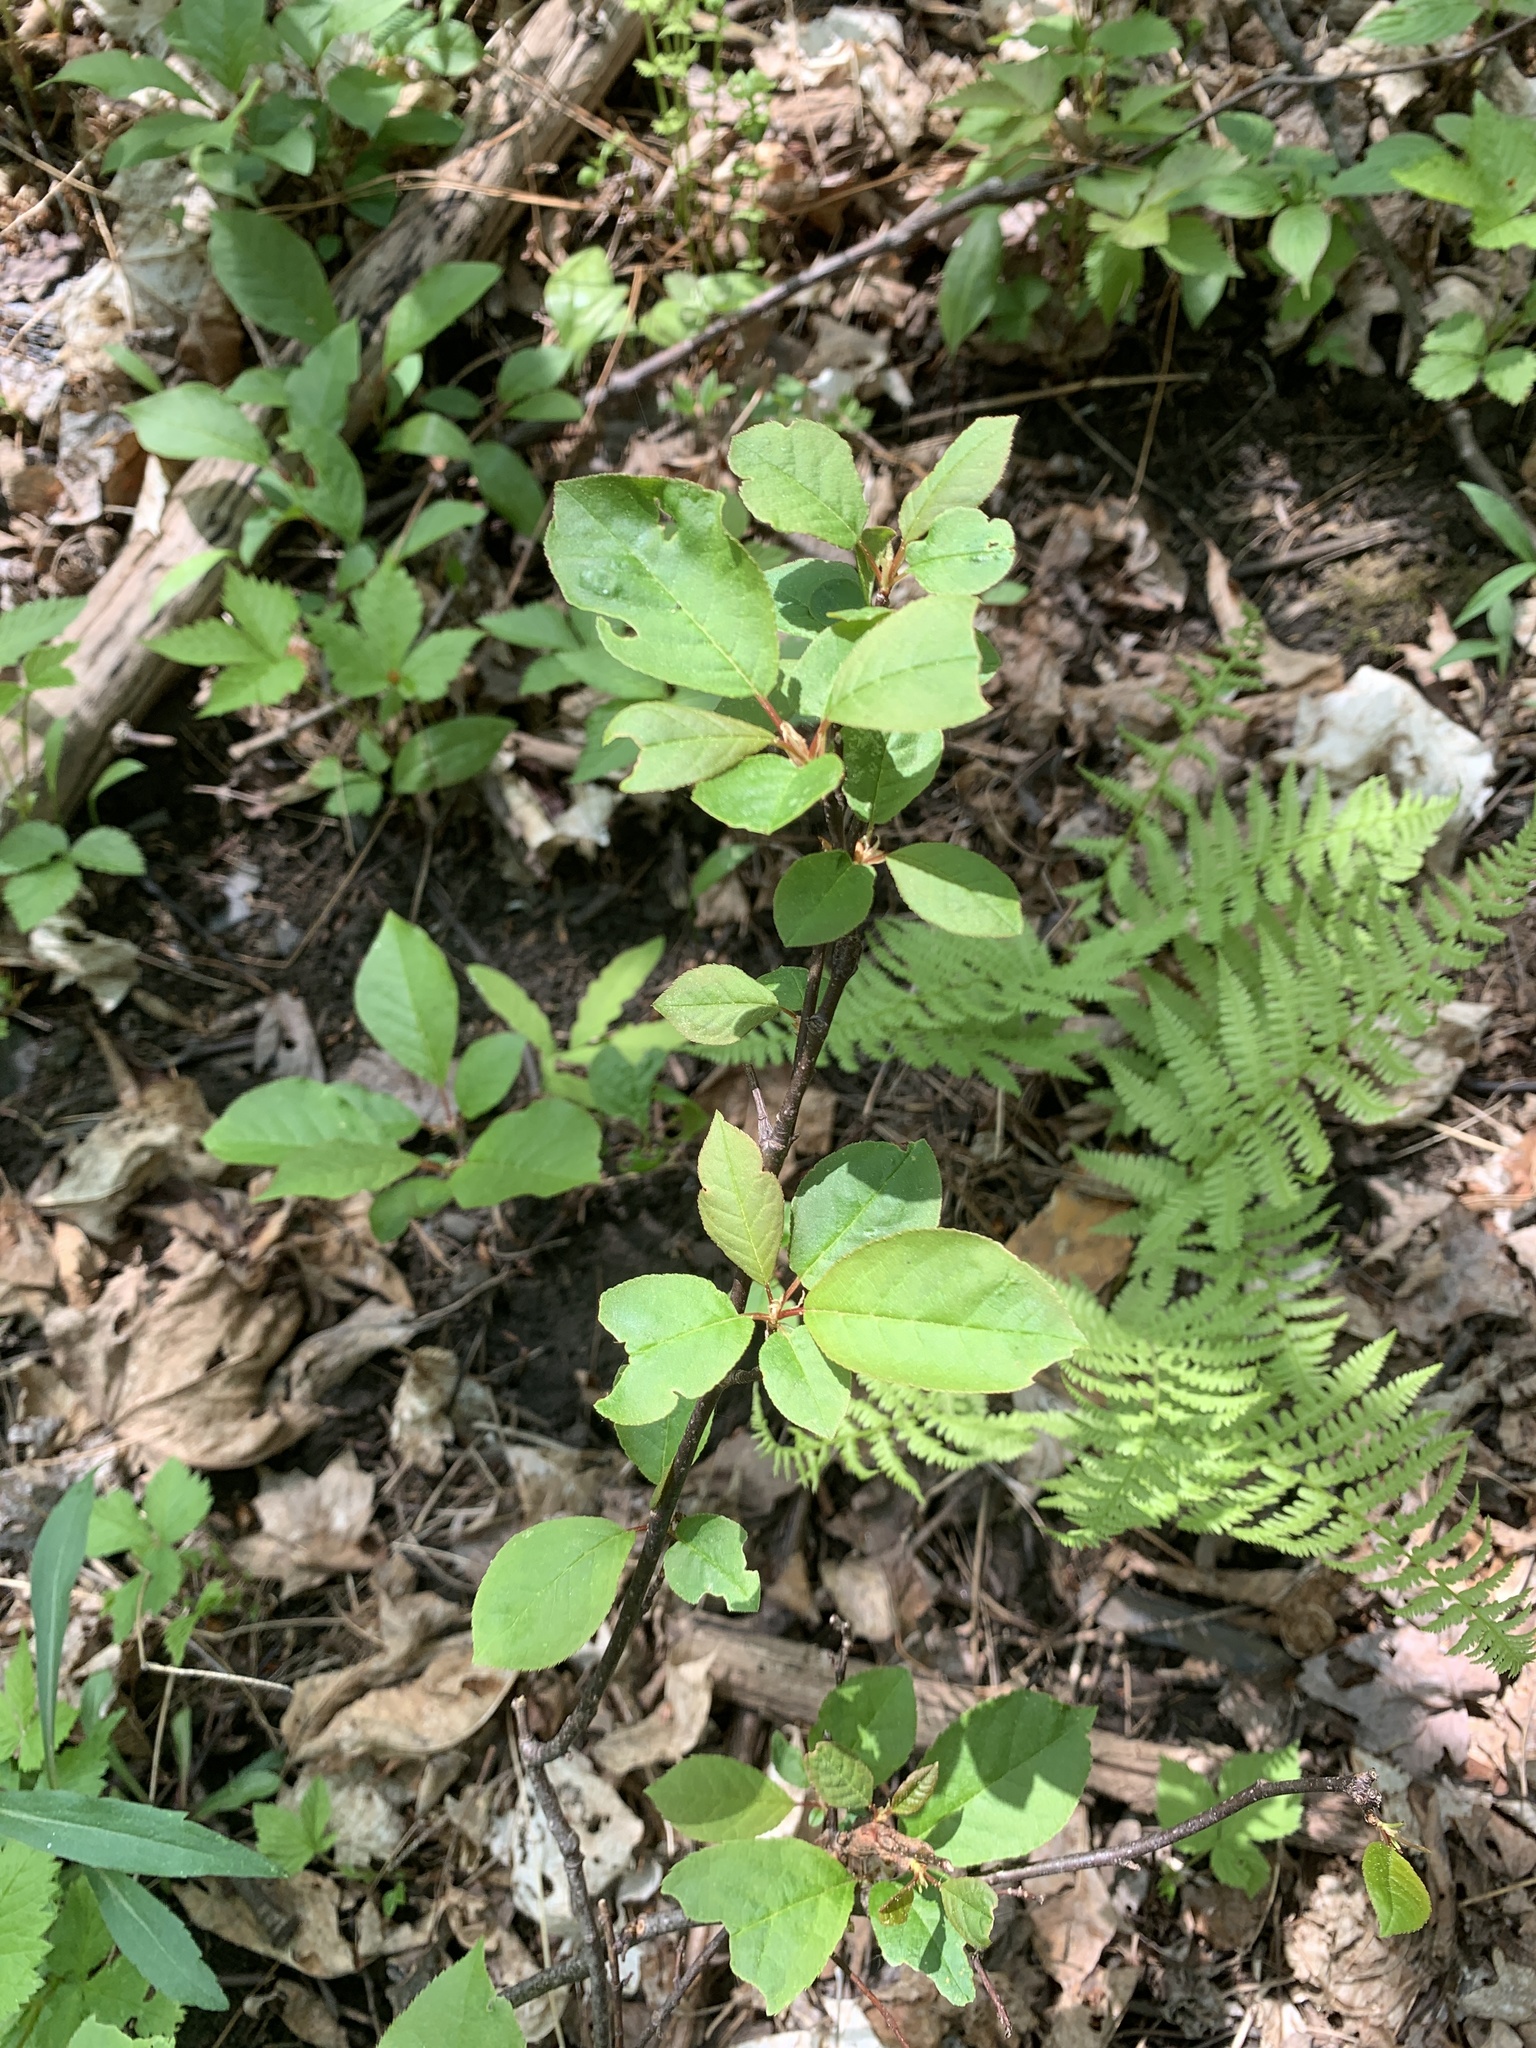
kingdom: Plantae
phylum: Tracheophyta
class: Magnoliopsida
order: Rosales
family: Rosaceae
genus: Prunus
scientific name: Prunus virginiana
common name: Chokecherry
